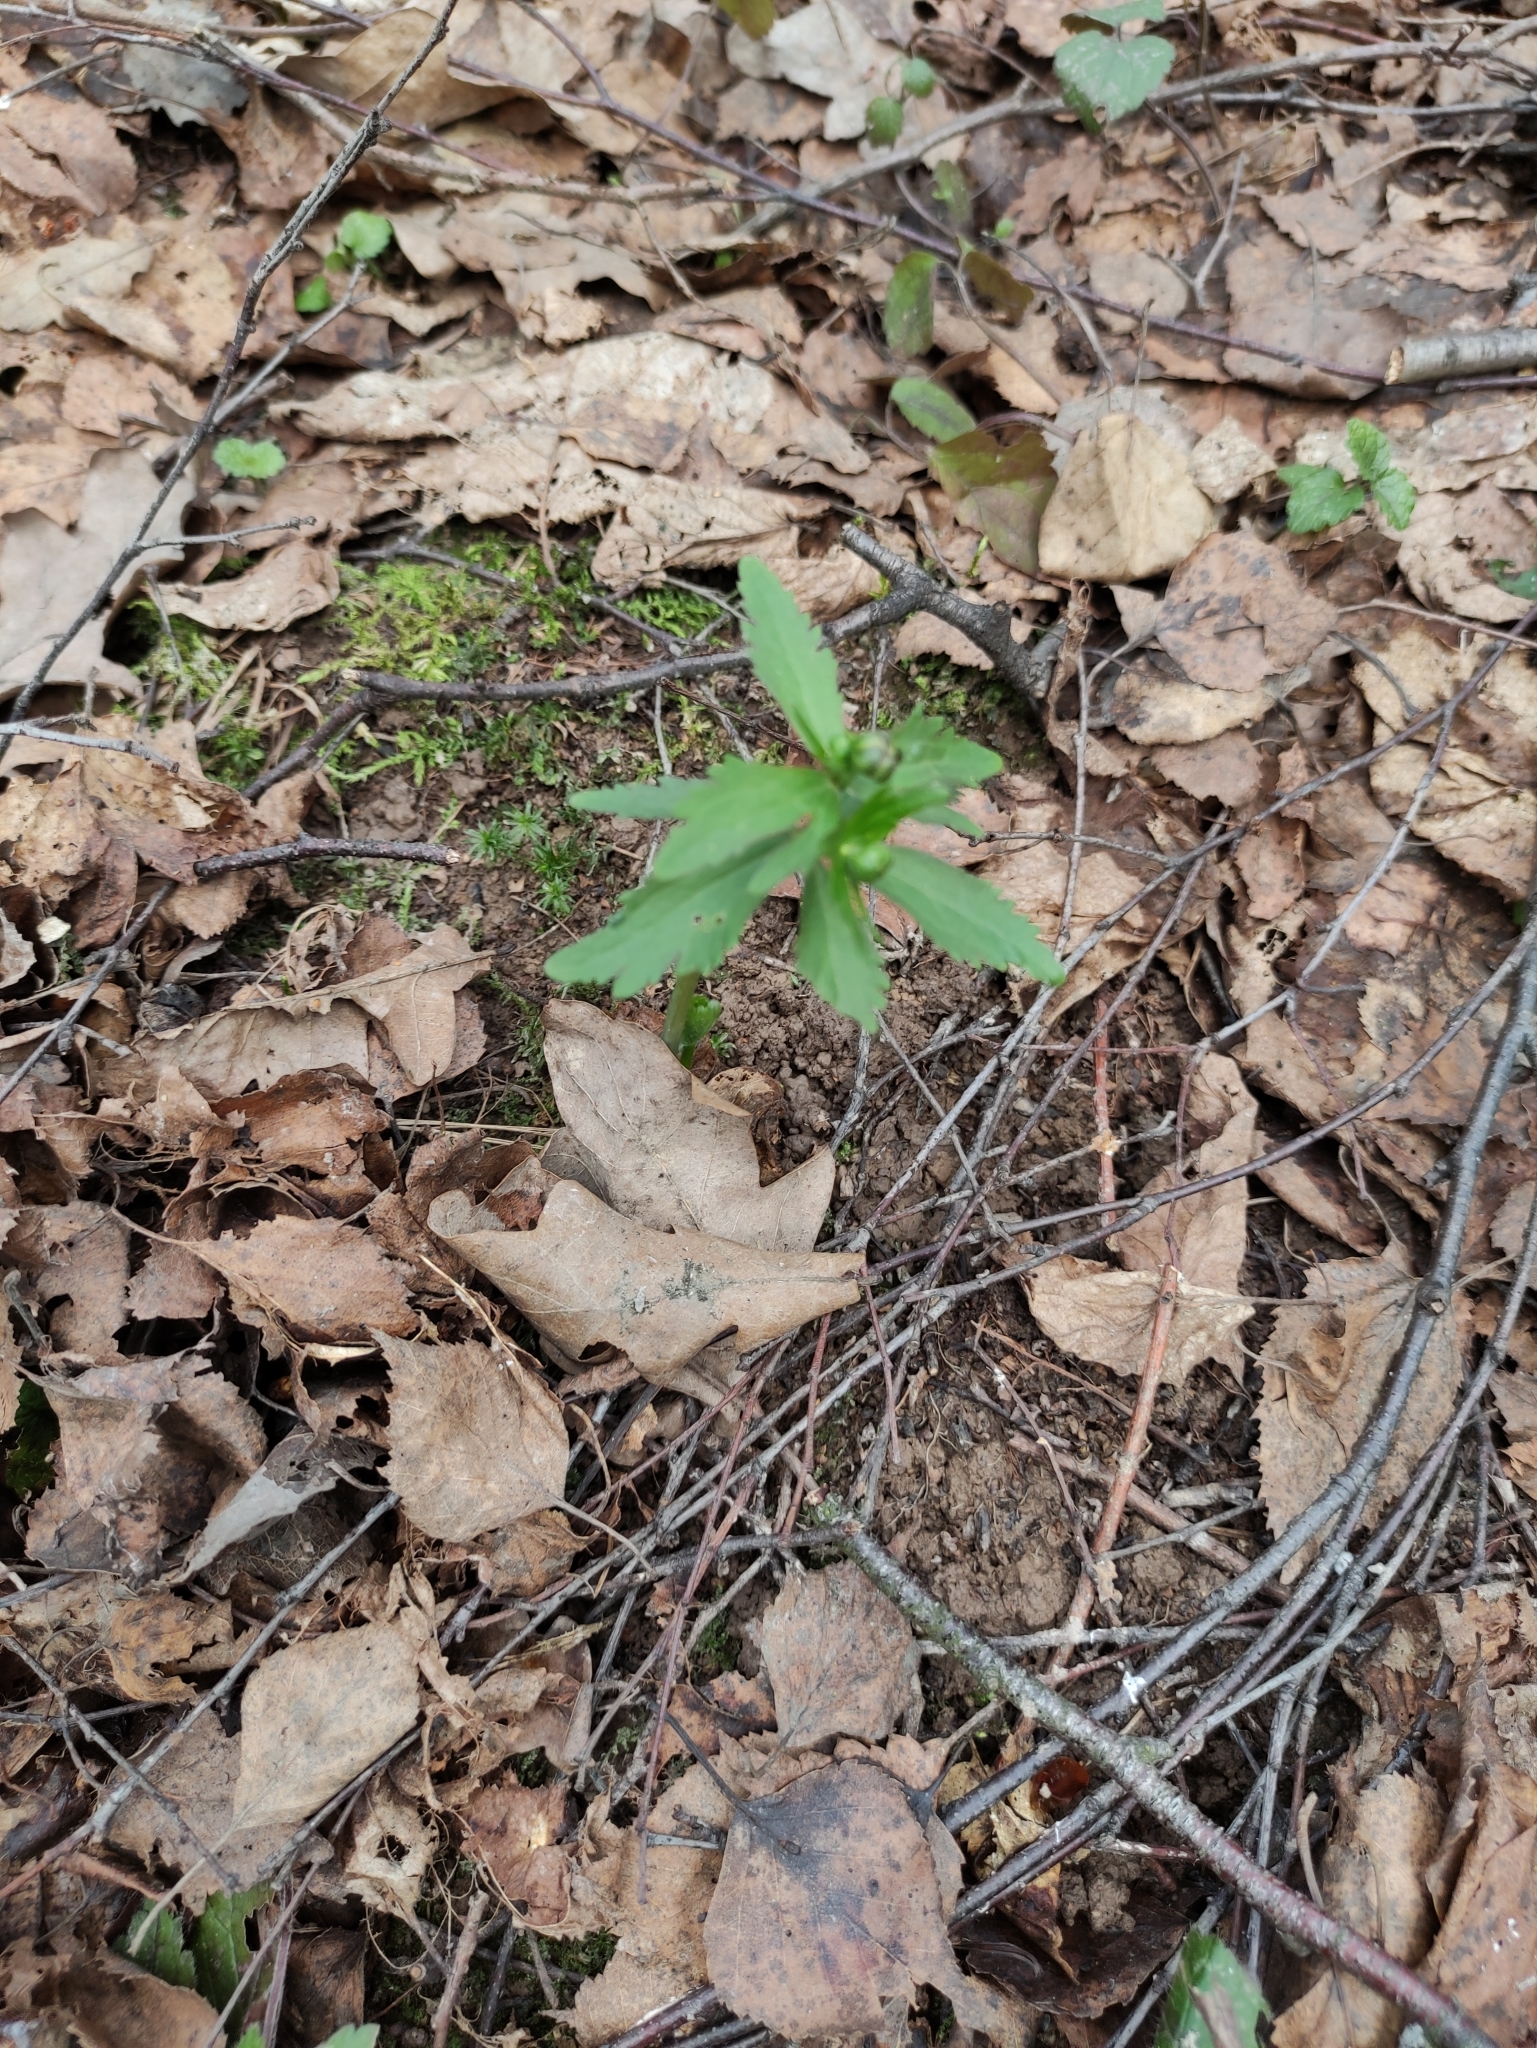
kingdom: Plantae
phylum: Tracheophyta
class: Magnoliopsida
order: Ranunculales
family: Ranunculaceae
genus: Ranunculus
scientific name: Ranunculus cassubicus
